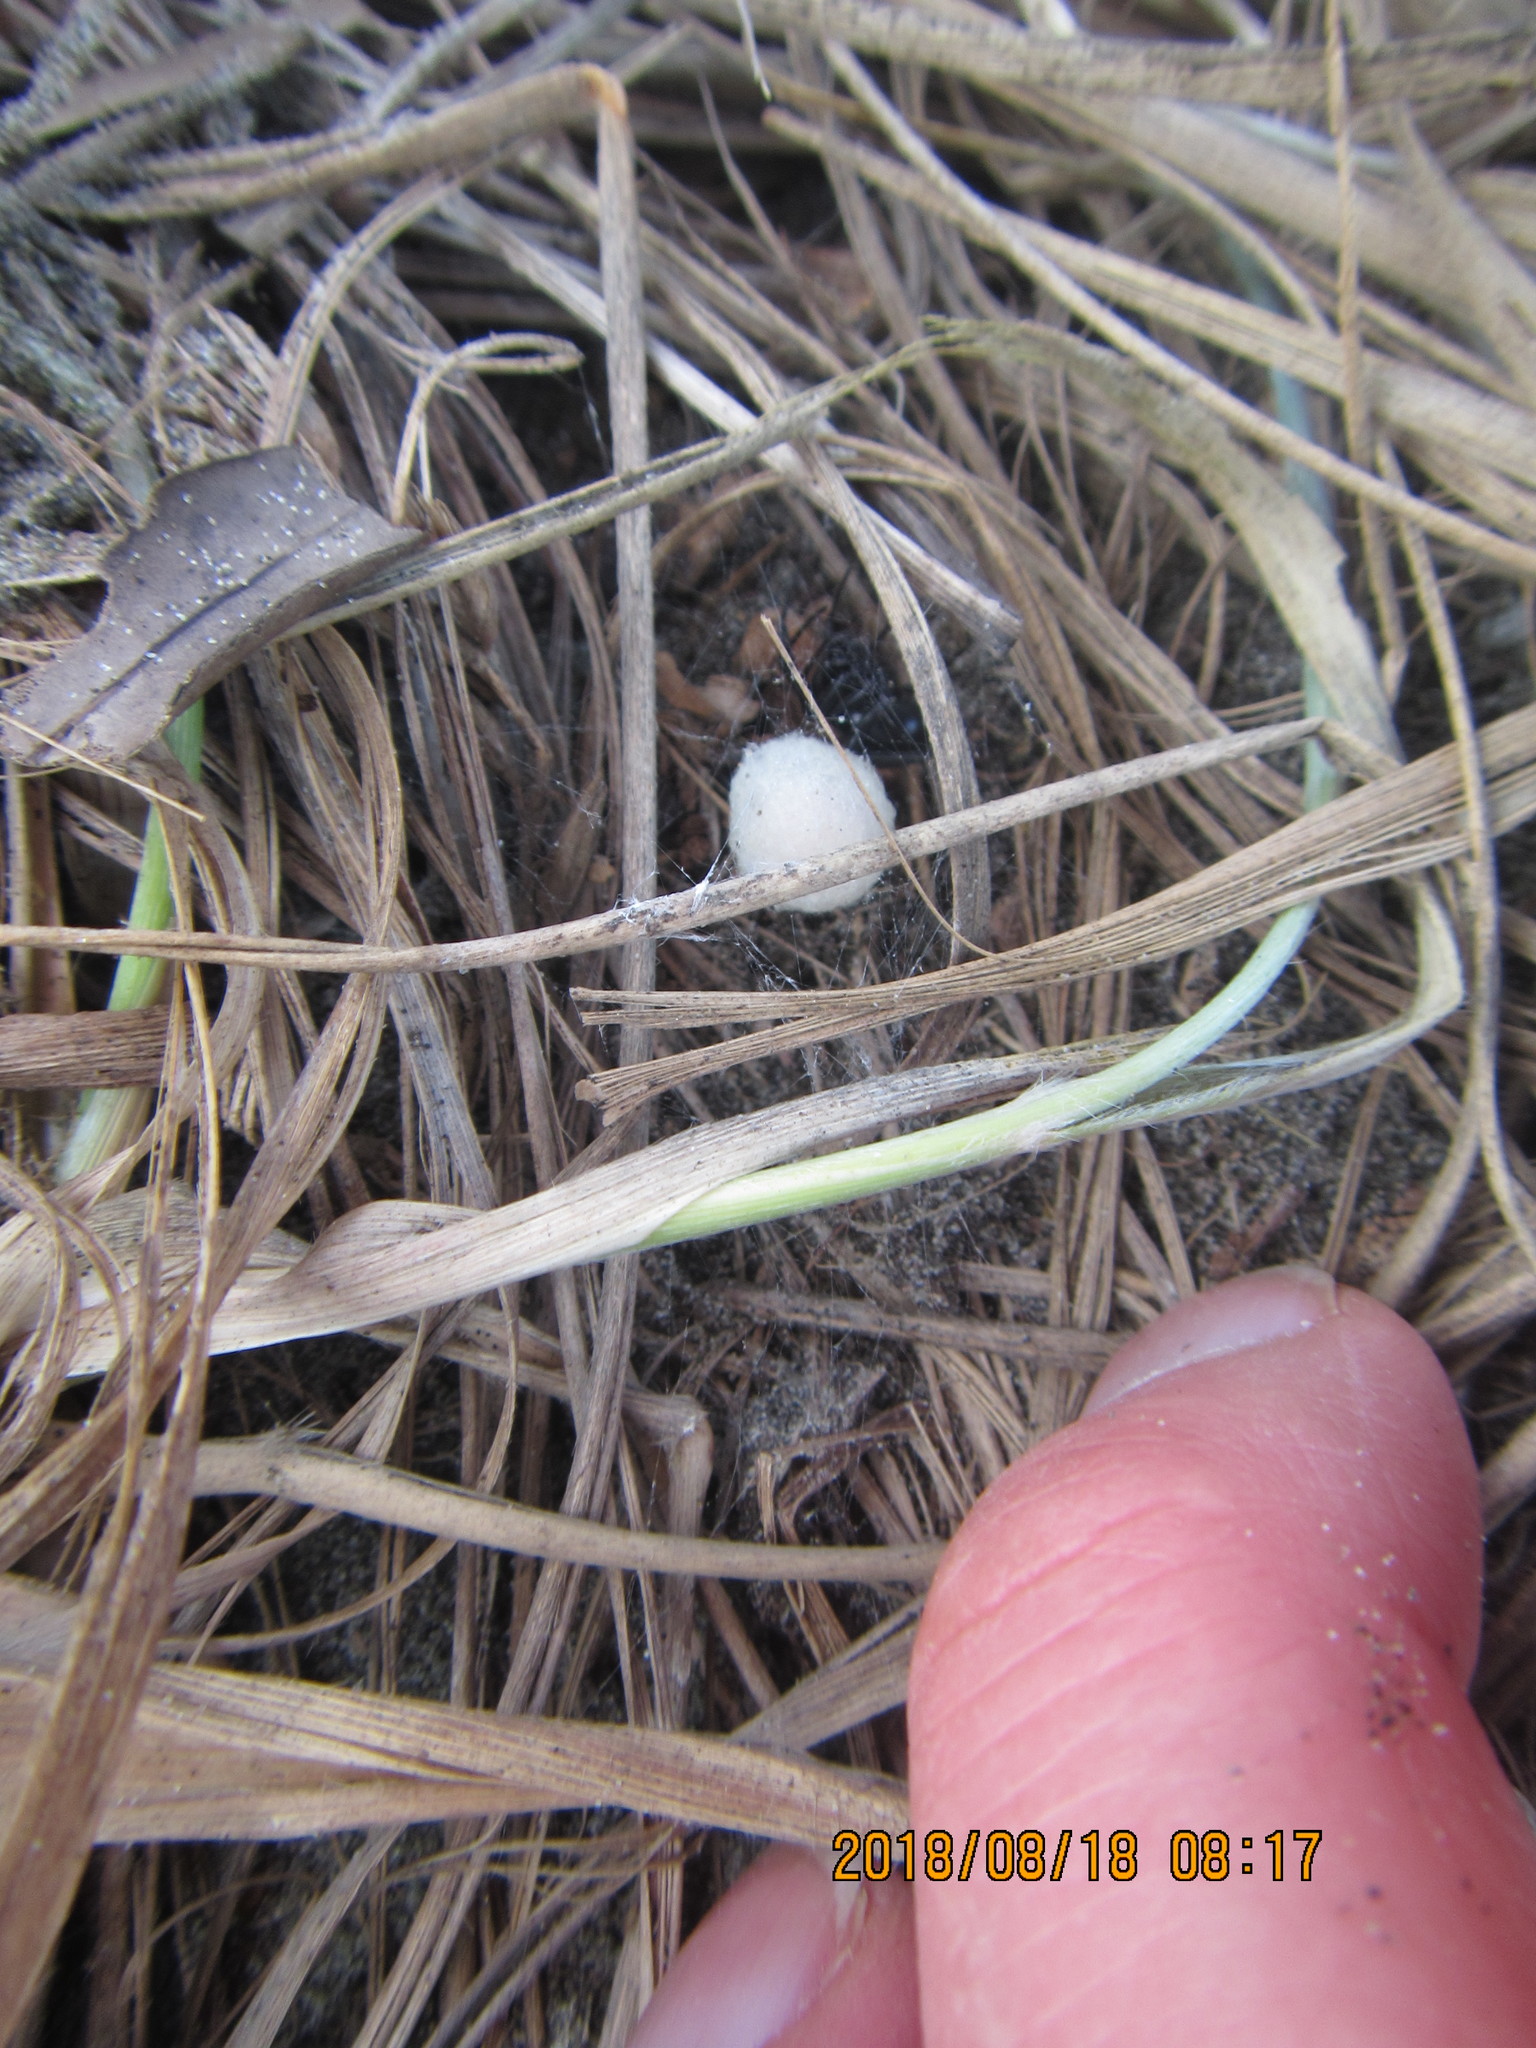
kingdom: Animalia
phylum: Arthropoda
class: Arachnida
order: Araneae
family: Theridiidae
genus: Steatoda
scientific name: Steatoda capensis
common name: Cobweb weaver
